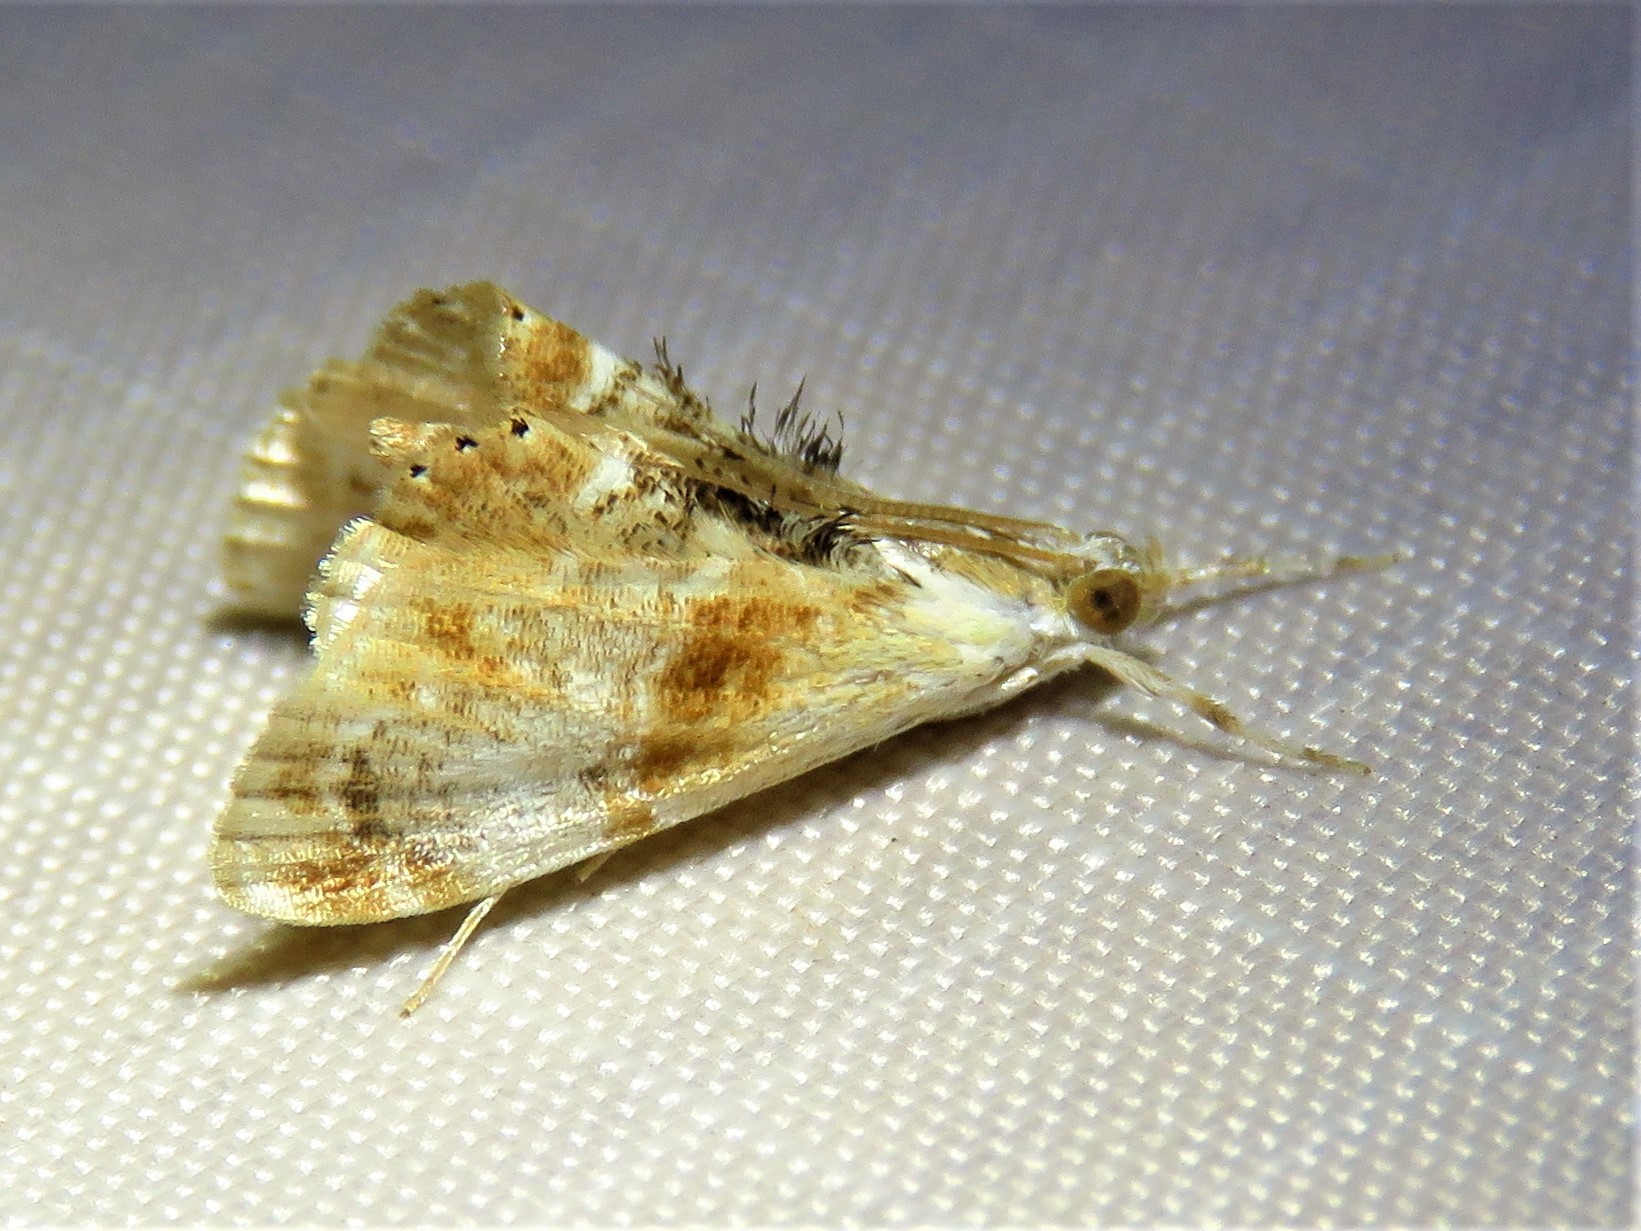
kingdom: Animalia
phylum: Arthropoda
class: Insecta
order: Lepidoptera
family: Crambidae
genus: Dicymolomia
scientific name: Dicymolomia julianalis
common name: Julia's dicymolomia moth
